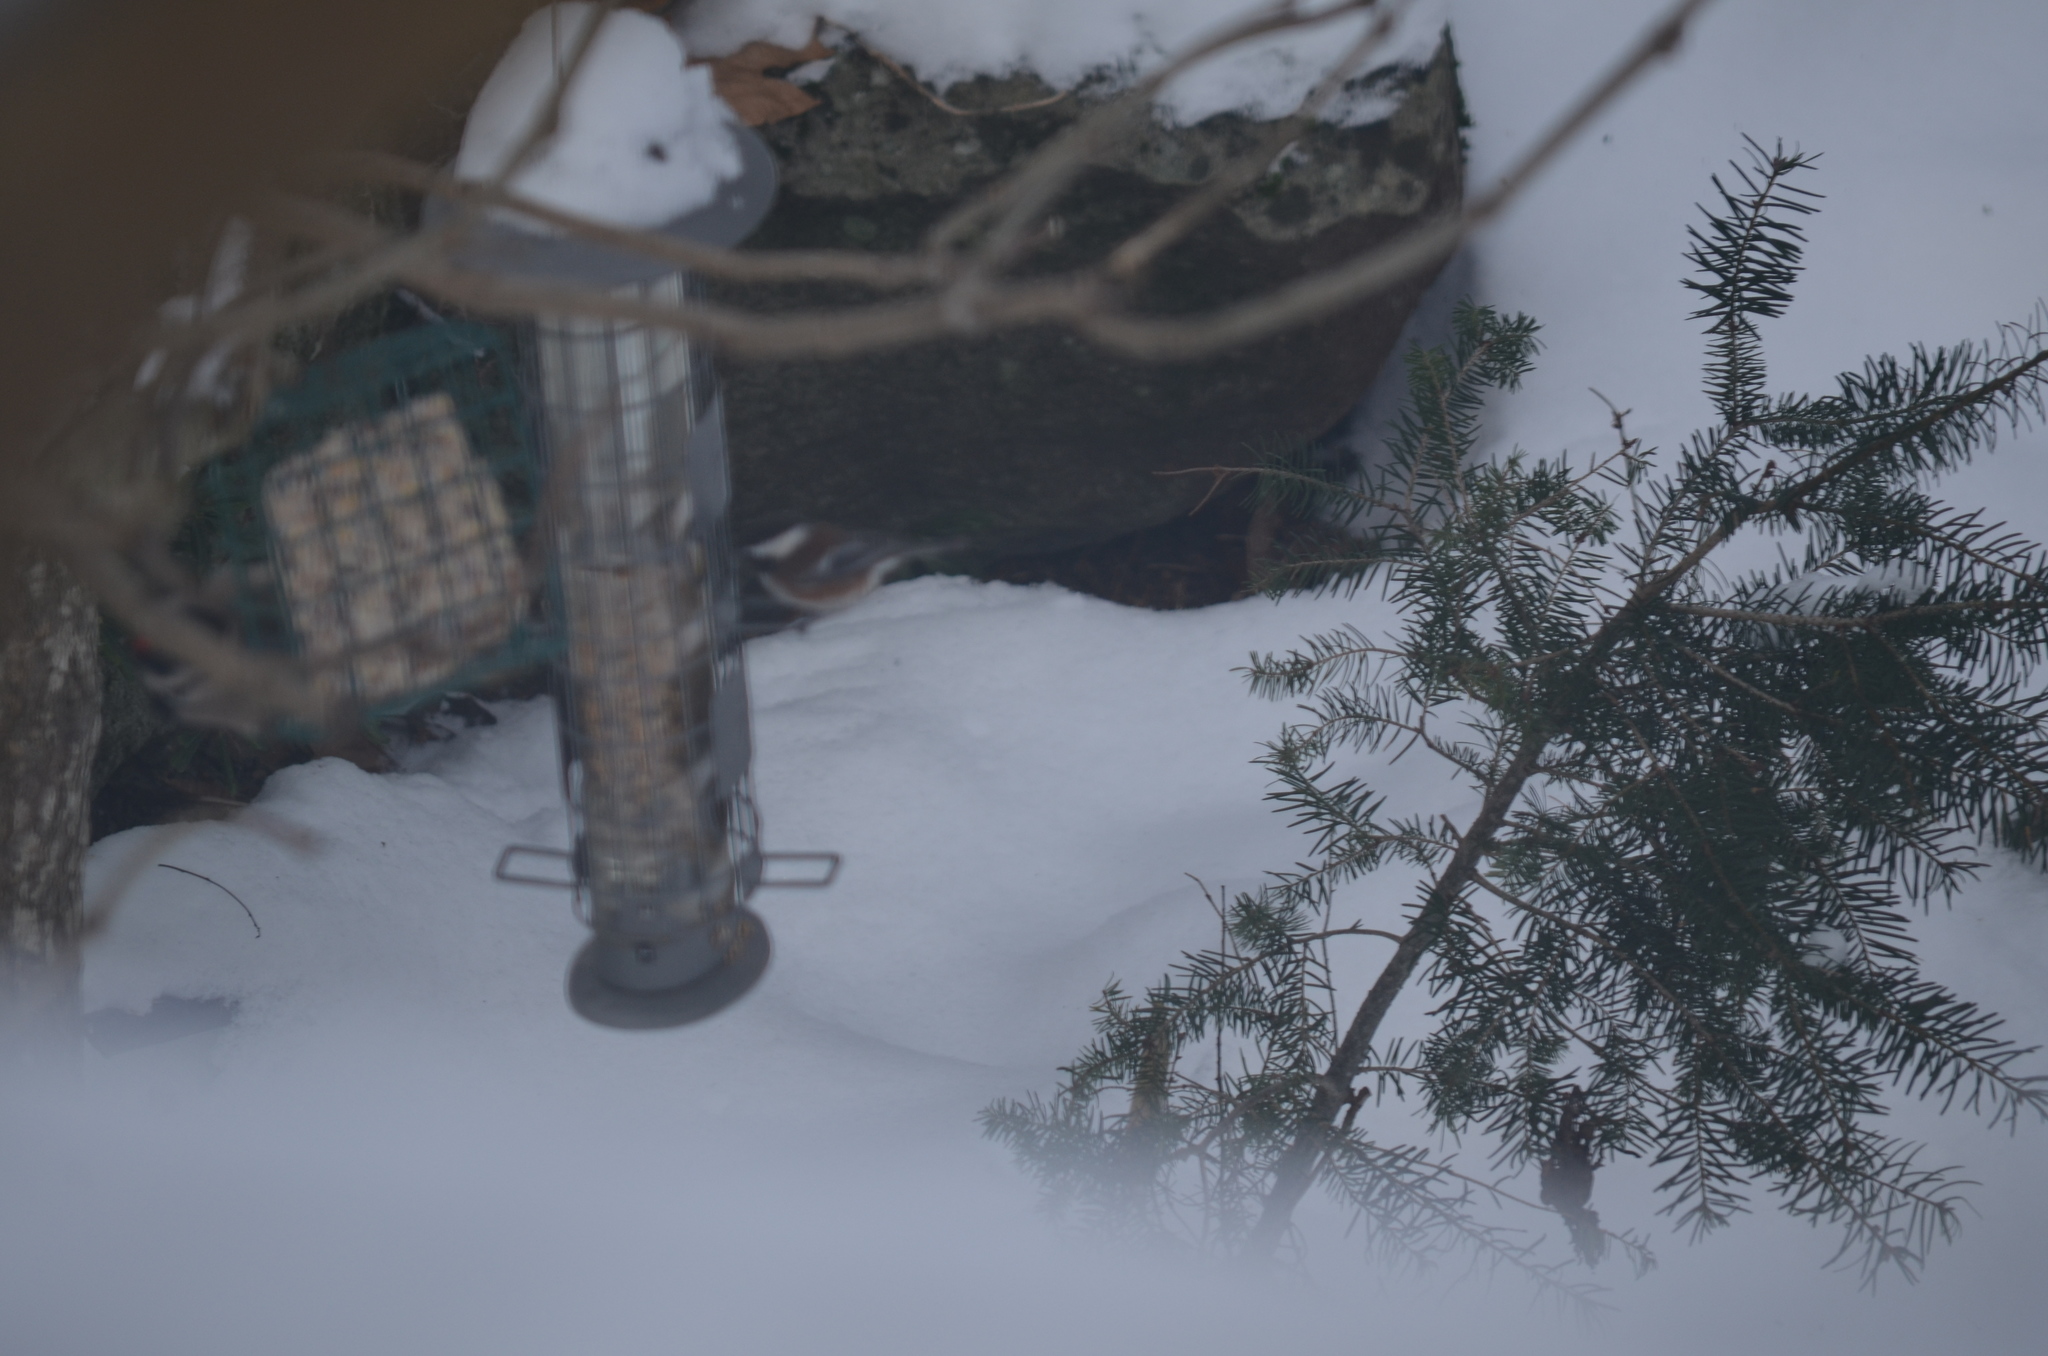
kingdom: Animalia
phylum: Chordata
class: Aves
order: Passeriformes
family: Paridae
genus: Poecile
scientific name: Poecile rufescens
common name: Chestnut-backed chickadee
